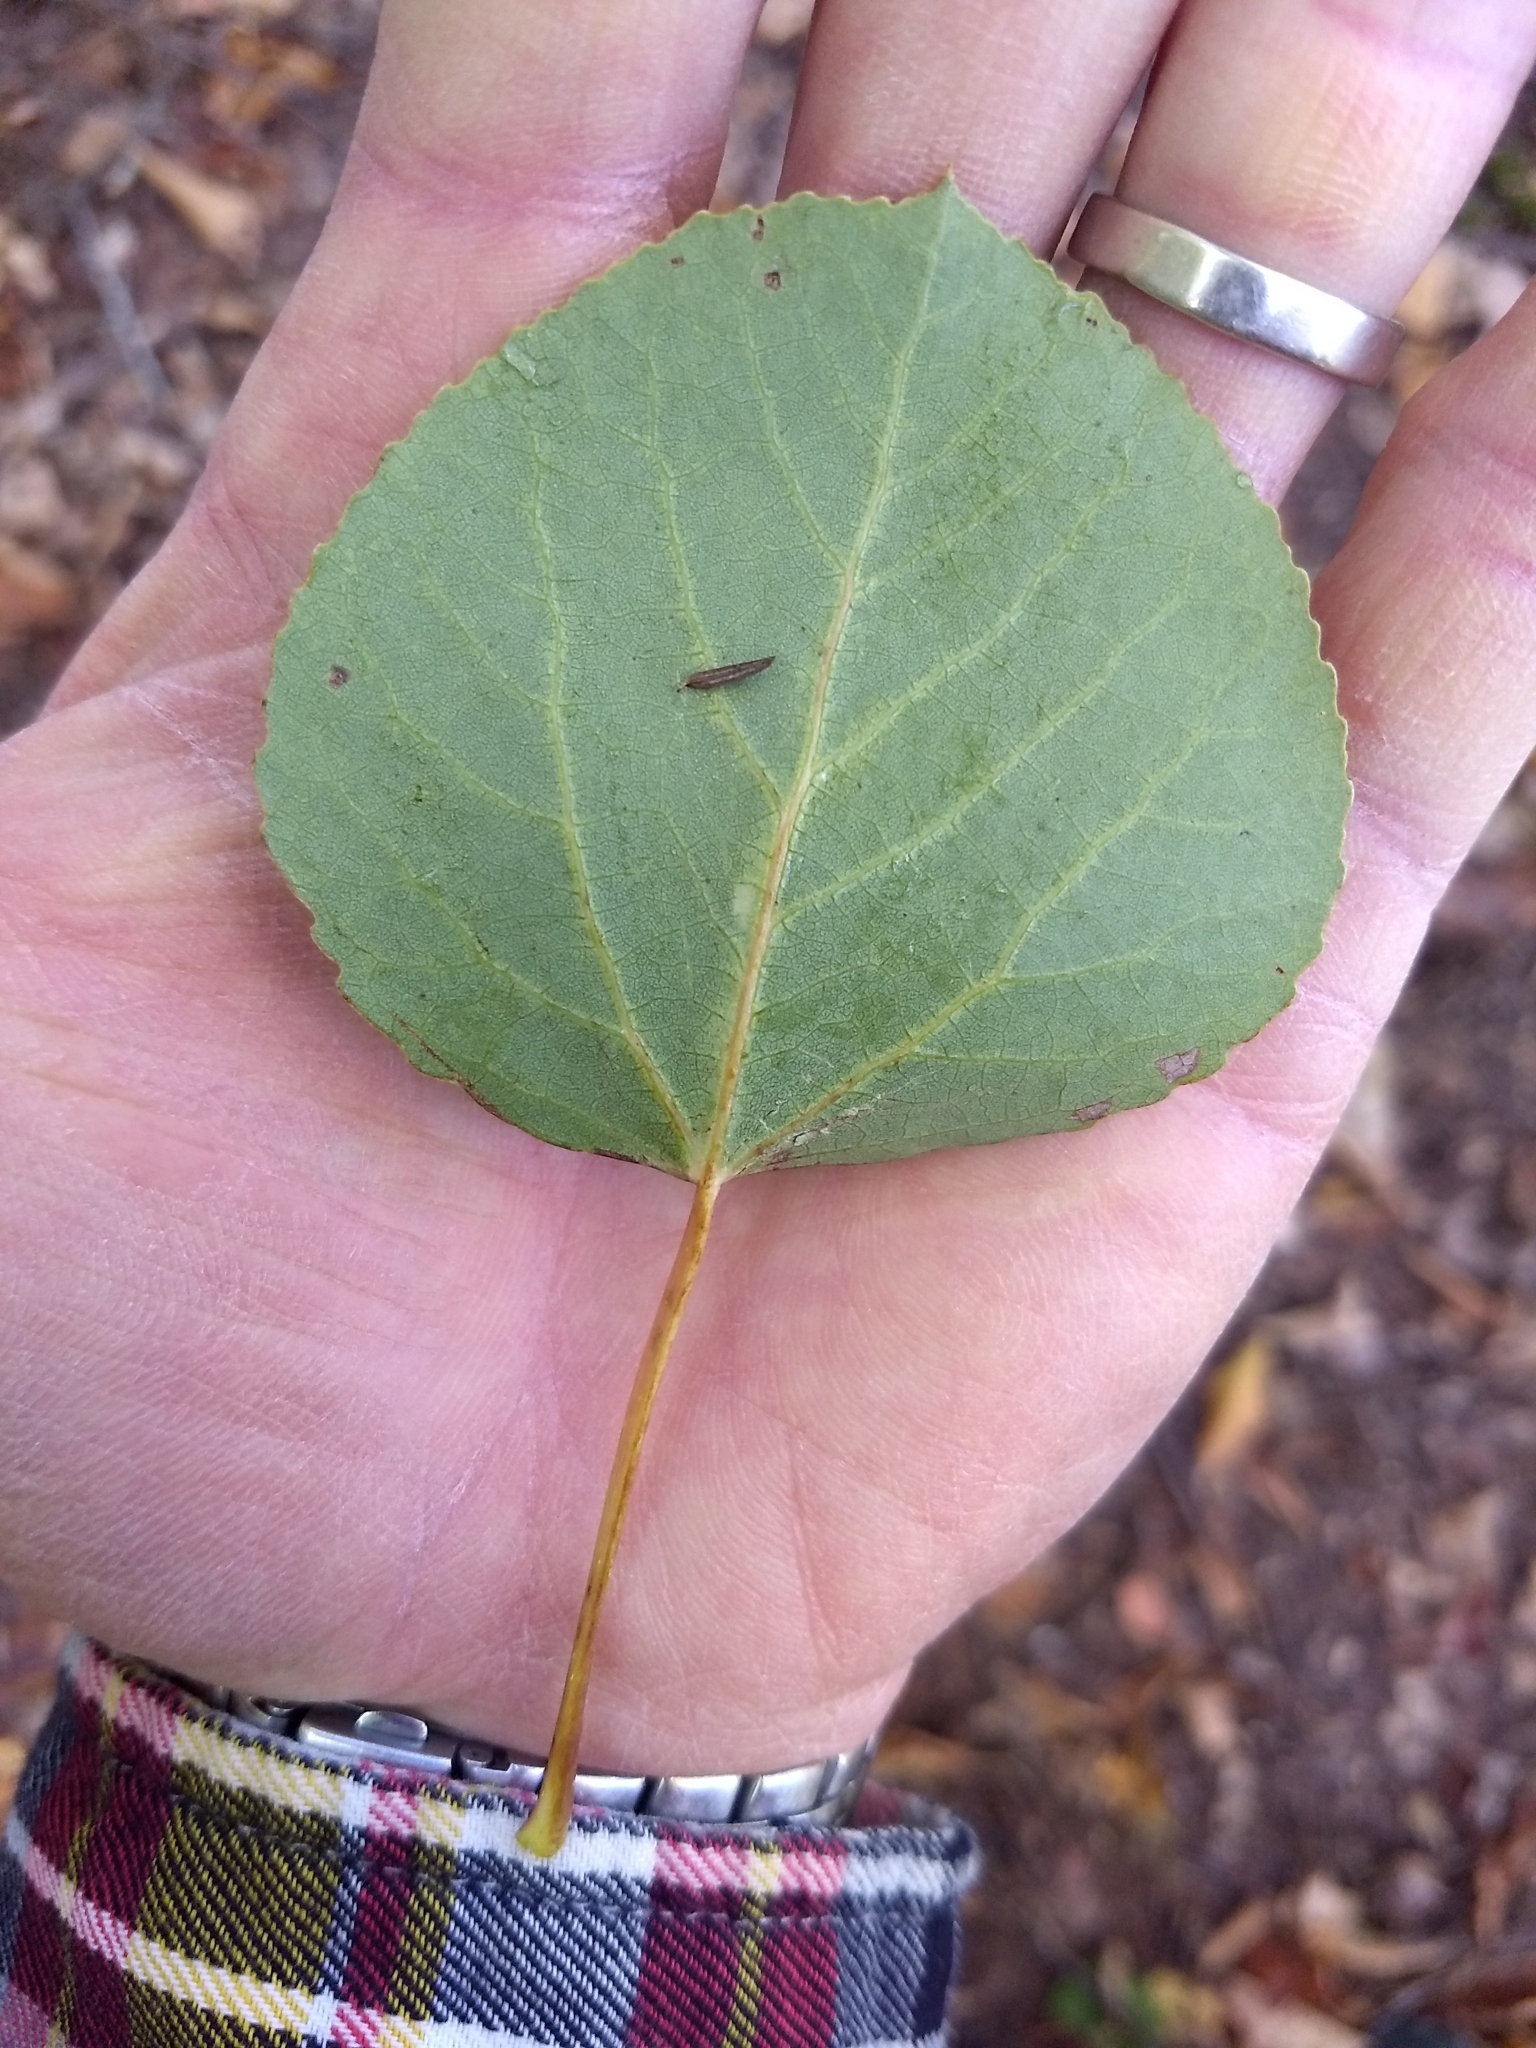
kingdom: Plantae
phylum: Tracheophyta
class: Magnoliopsida
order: Malpighiales
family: Salicaceae
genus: Populus
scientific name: Populus tremuloides
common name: Quaking aspen
